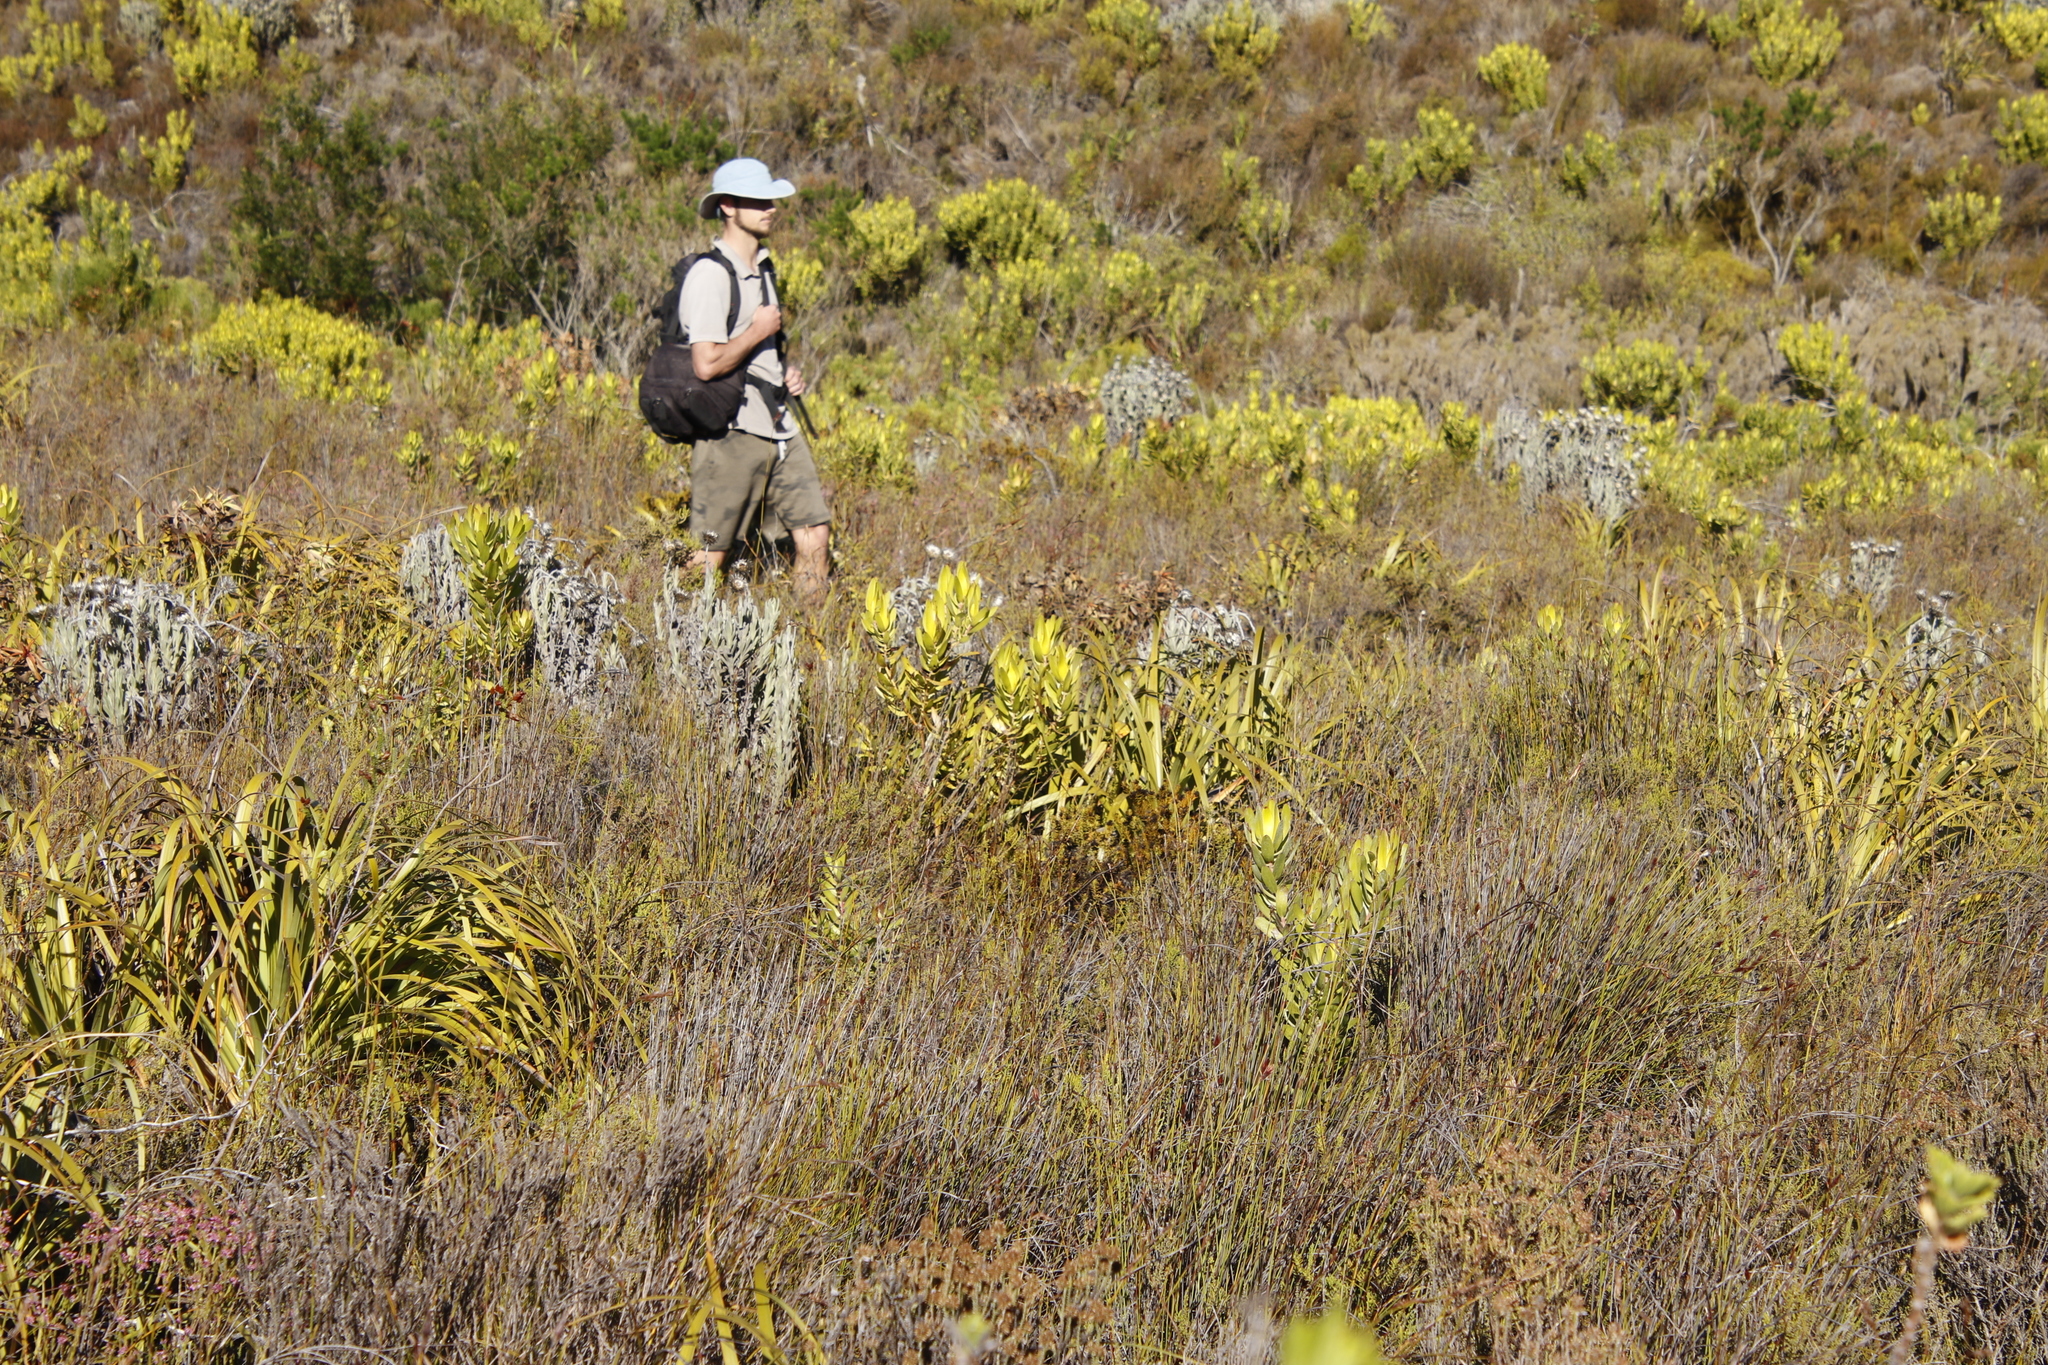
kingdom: Plantae
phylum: Tracheophyta
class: Magnoliopsida
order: Proteales
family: Proteaceae
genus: Leucadendron
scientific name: Leucadendron laureolum
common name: Golden sunshinebush
